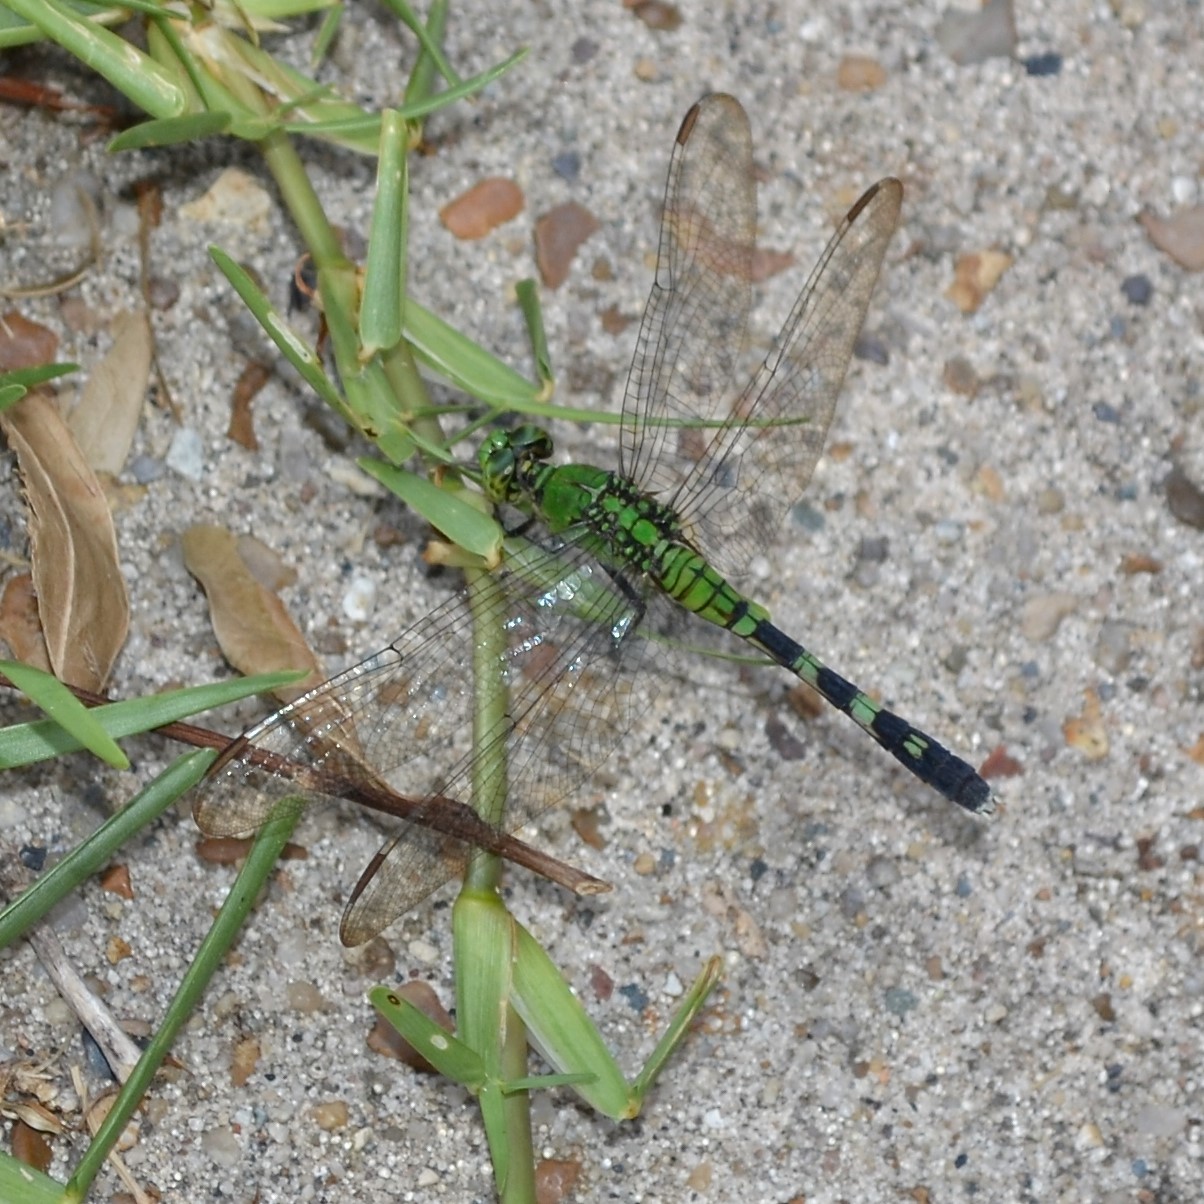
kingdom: Animalia
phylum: Arthropoda
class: Insecta
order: Odonata
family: Libellulidae
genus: Erythemis
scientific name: Erythemis simplicicollis
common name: Eastern pondhawk
